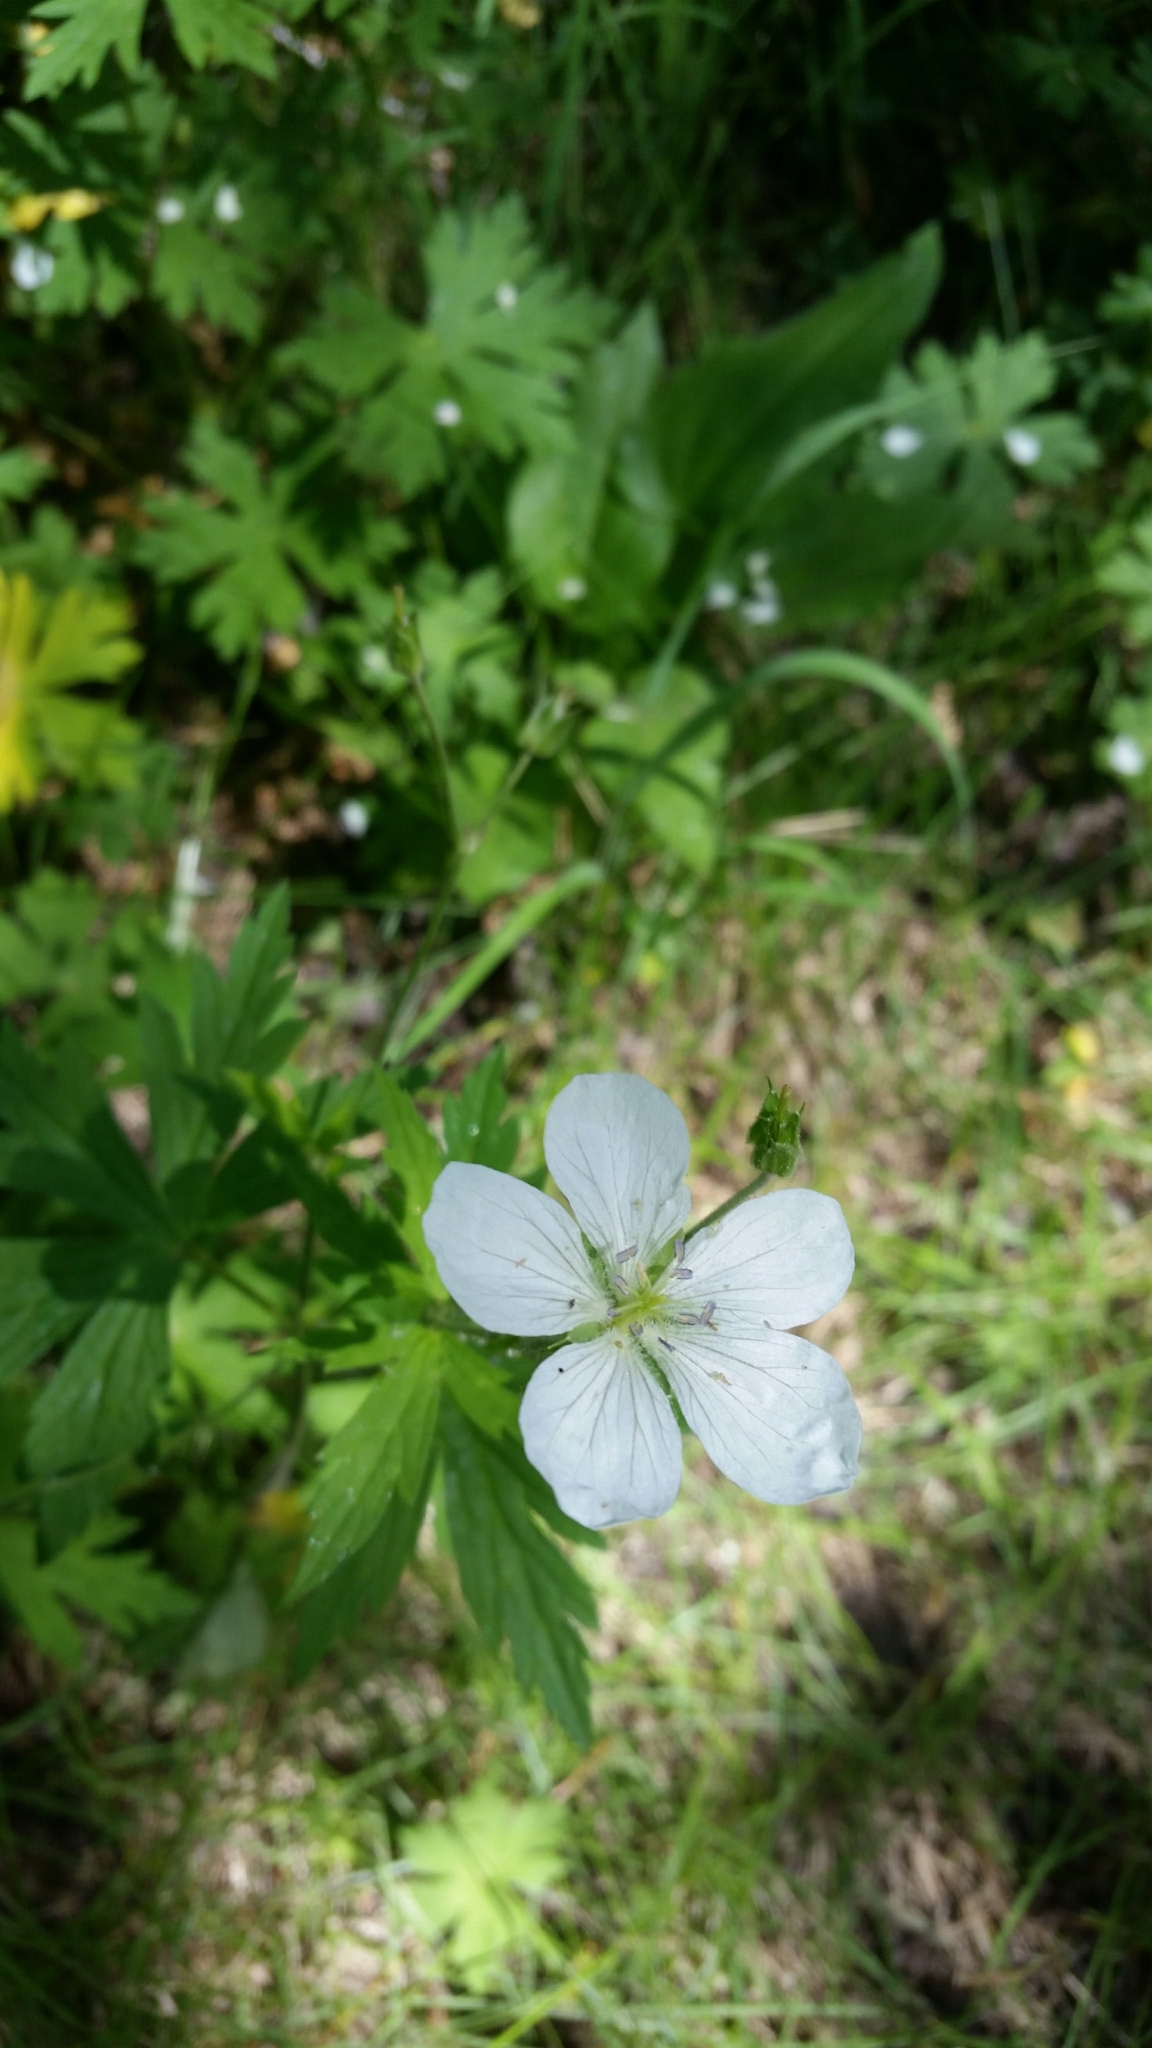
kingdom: Plantae
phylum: Tracheophyta
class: Magnoliopsida
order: Geraniales
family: Geraniaceae
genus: Geranium
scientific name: Geranium richardsonii
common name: Richardson's crane's-bill
